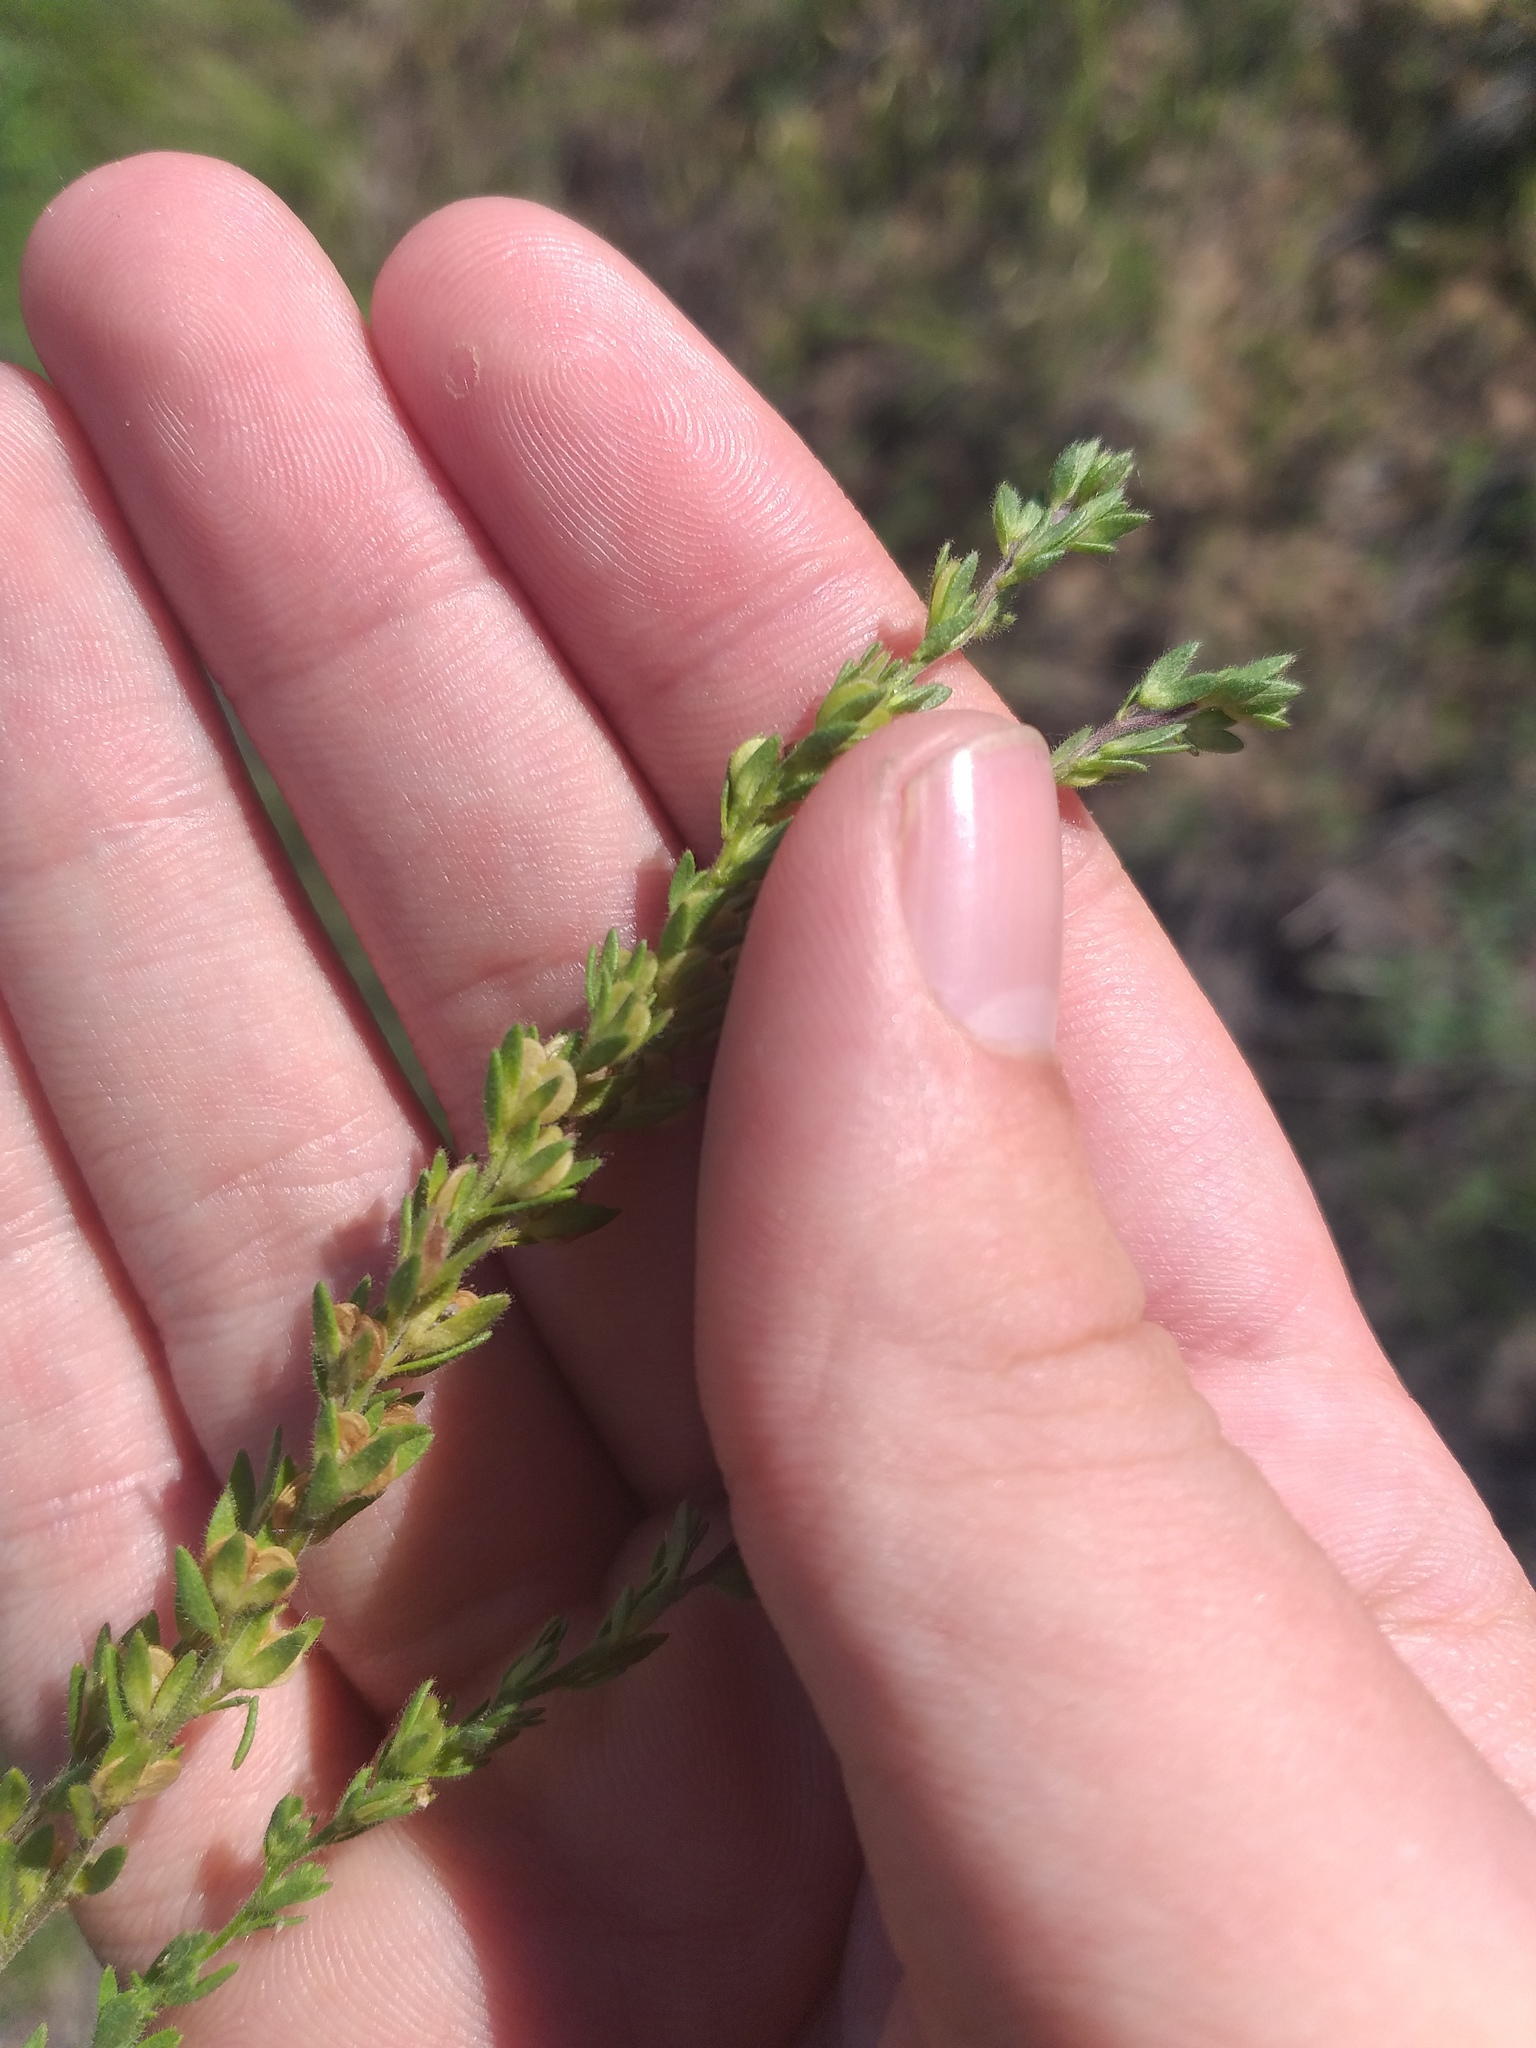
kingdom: Plantae
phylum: Tracheophyta
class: Magnoliopsida
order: Lamiales
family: Plantaginaceae
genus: Veronica
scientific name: Veronica verna
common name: Spring speedwell
